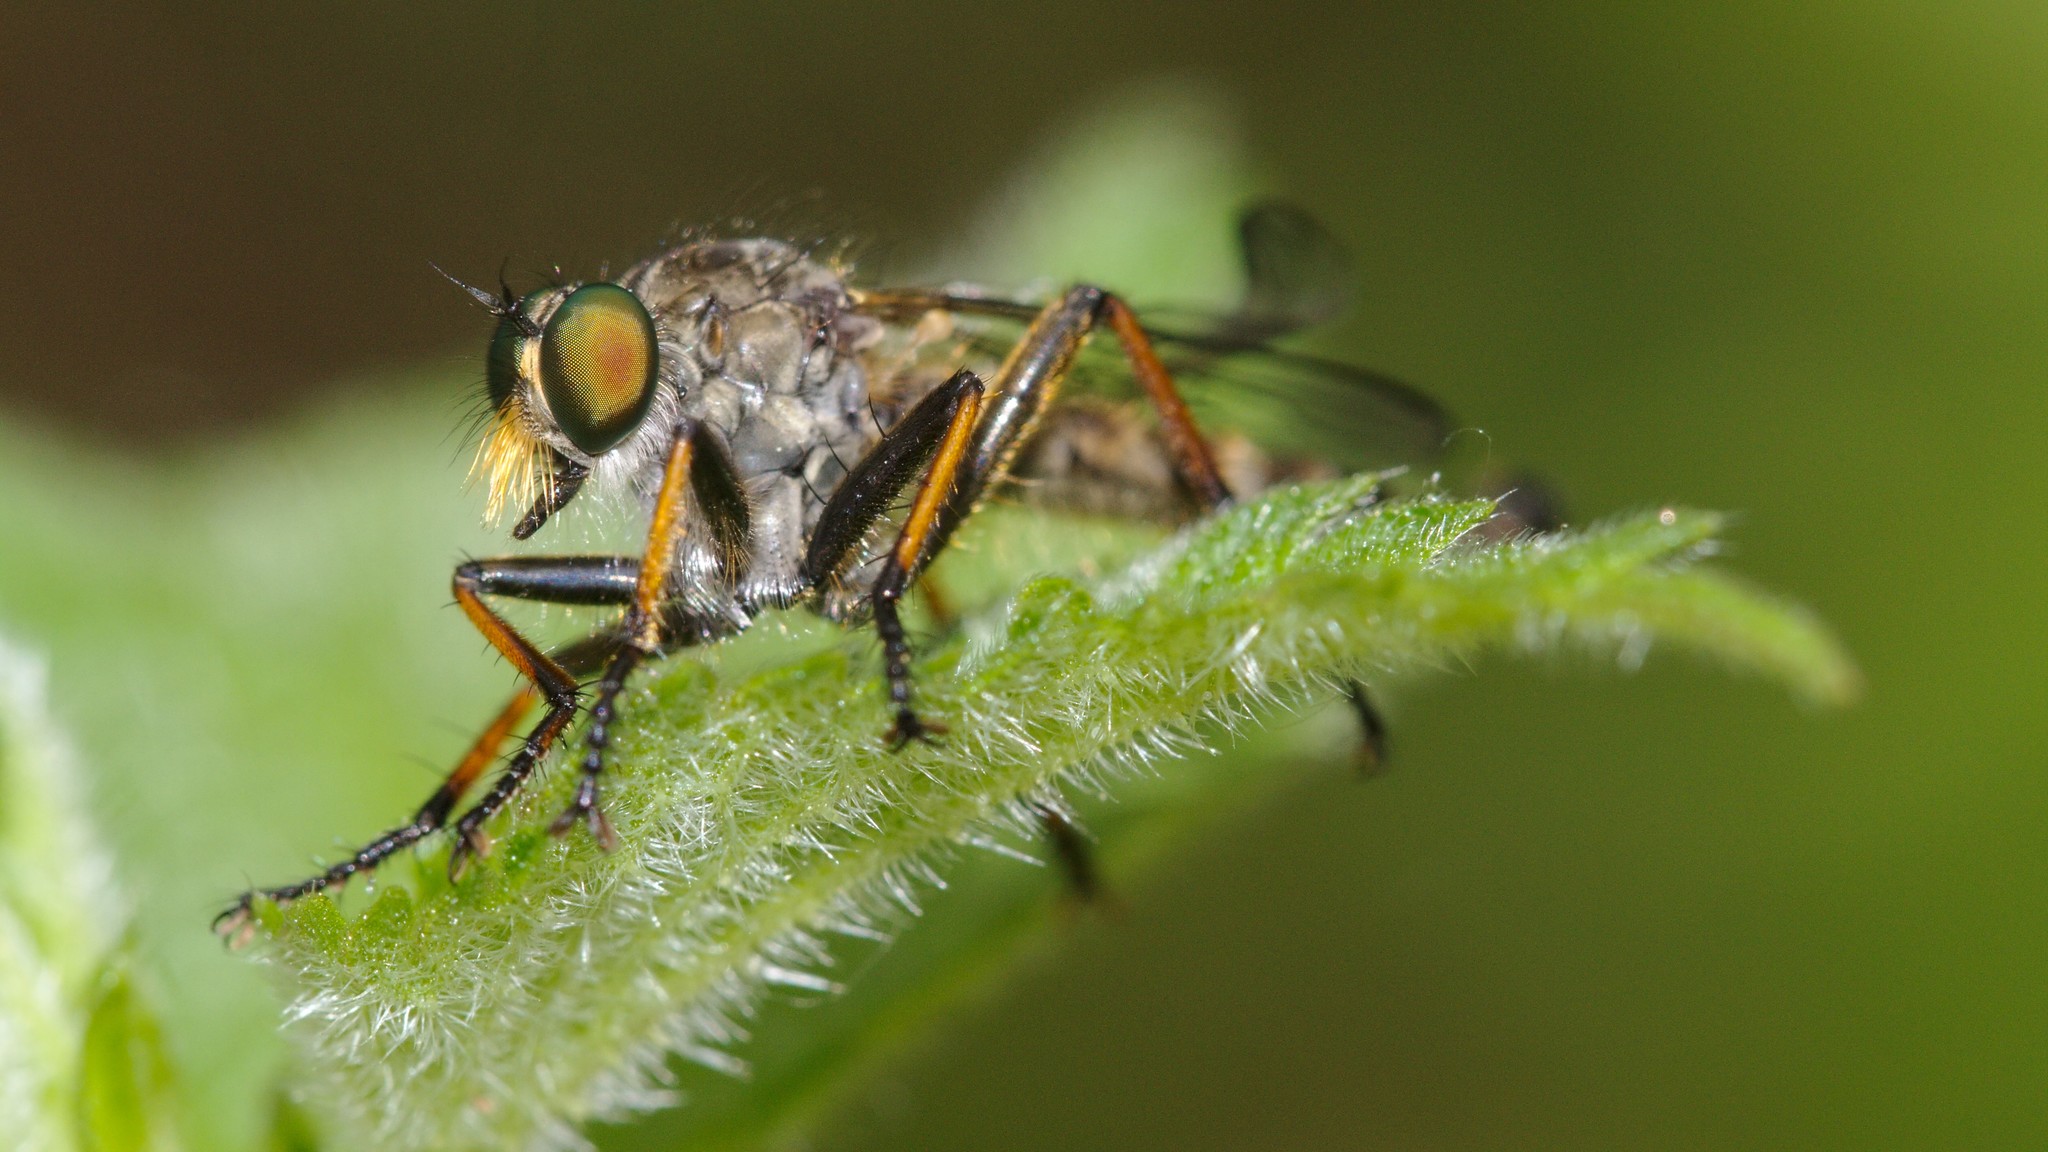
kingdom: Animalia
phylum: Arthropoda
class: Insecta
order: Diptera
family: Asilidae
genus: Neoitamus
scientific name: Neoitamus cyanurus
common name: Common awl robberfly
